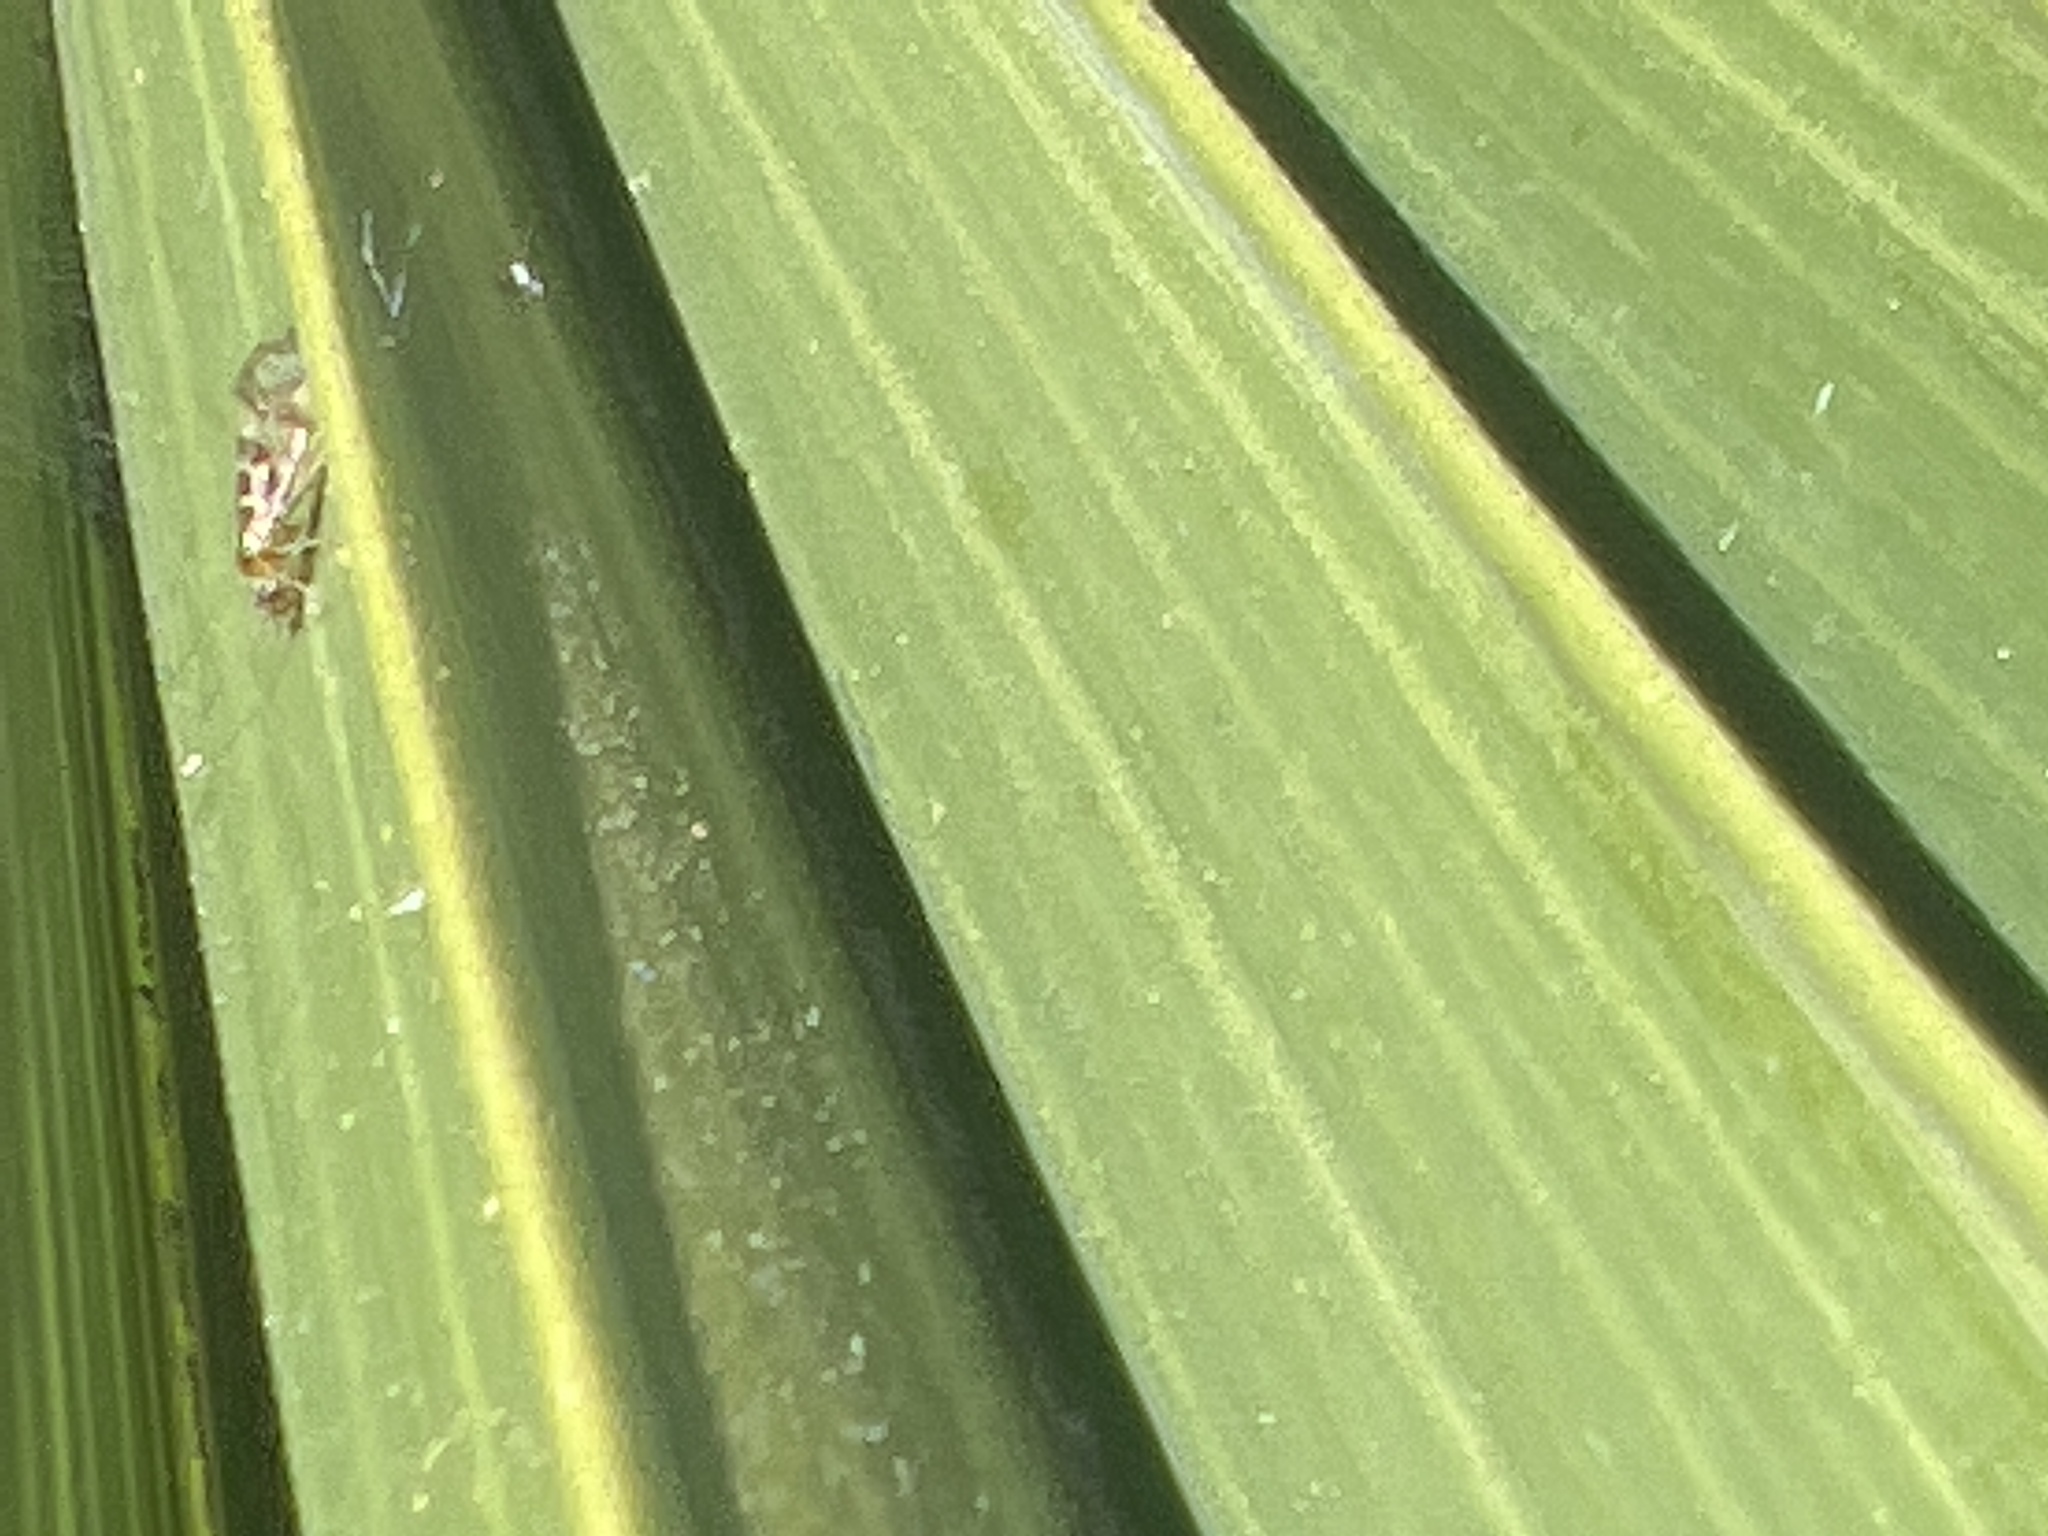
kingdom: Animalia
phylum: Arthropoda
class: Insecta
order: Psocodea
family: Stenopsocidae
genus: Graphopsocus
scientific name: Graphopsocus cruciatus
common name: Lizard bark louse
